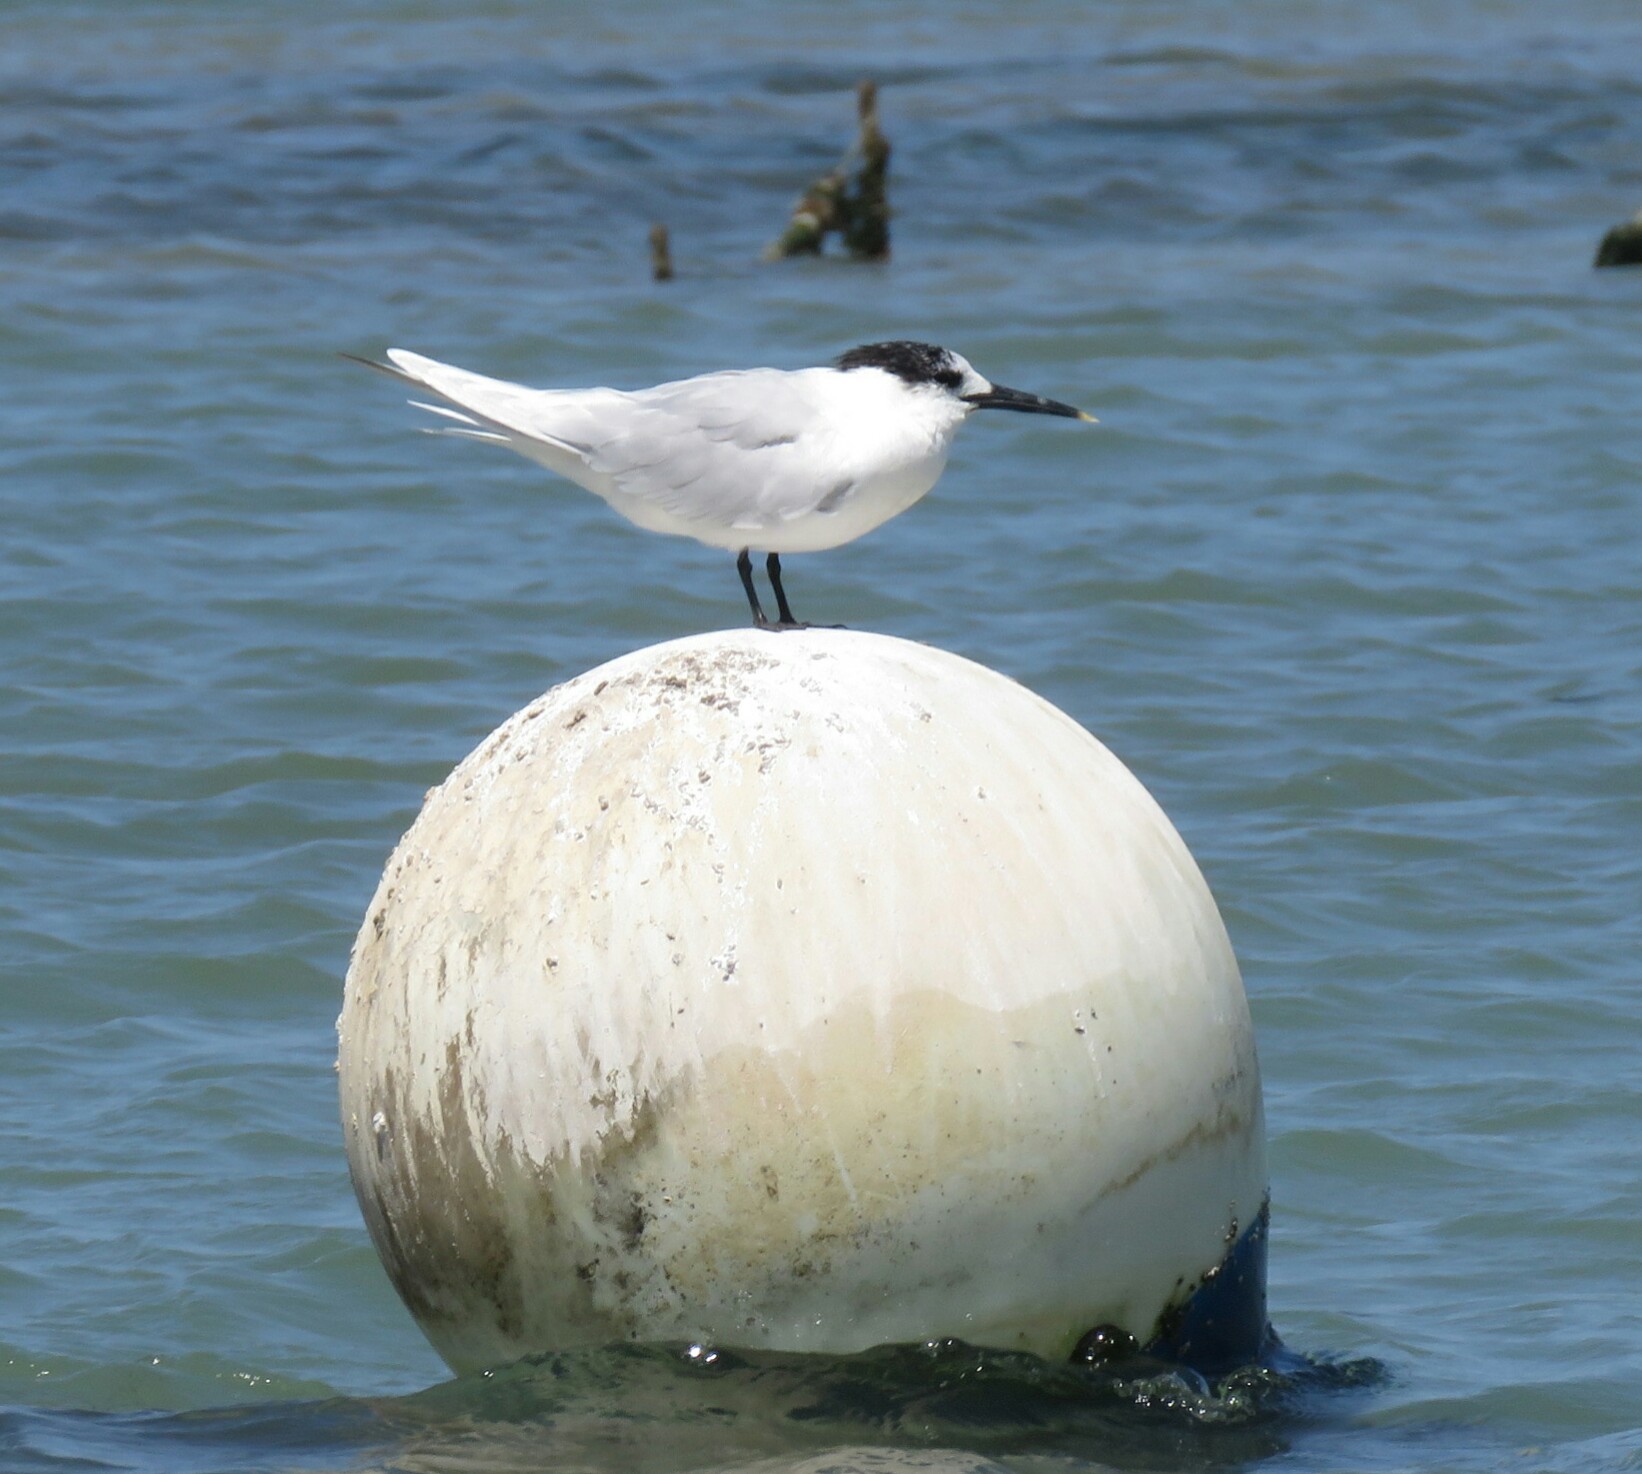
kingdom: Animalia
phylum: Chordata
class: Aves
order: Charadriiformes
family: Laridae
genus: Thalasseus
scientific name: Thalasseus sandvicensis
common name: Sandwich tern
